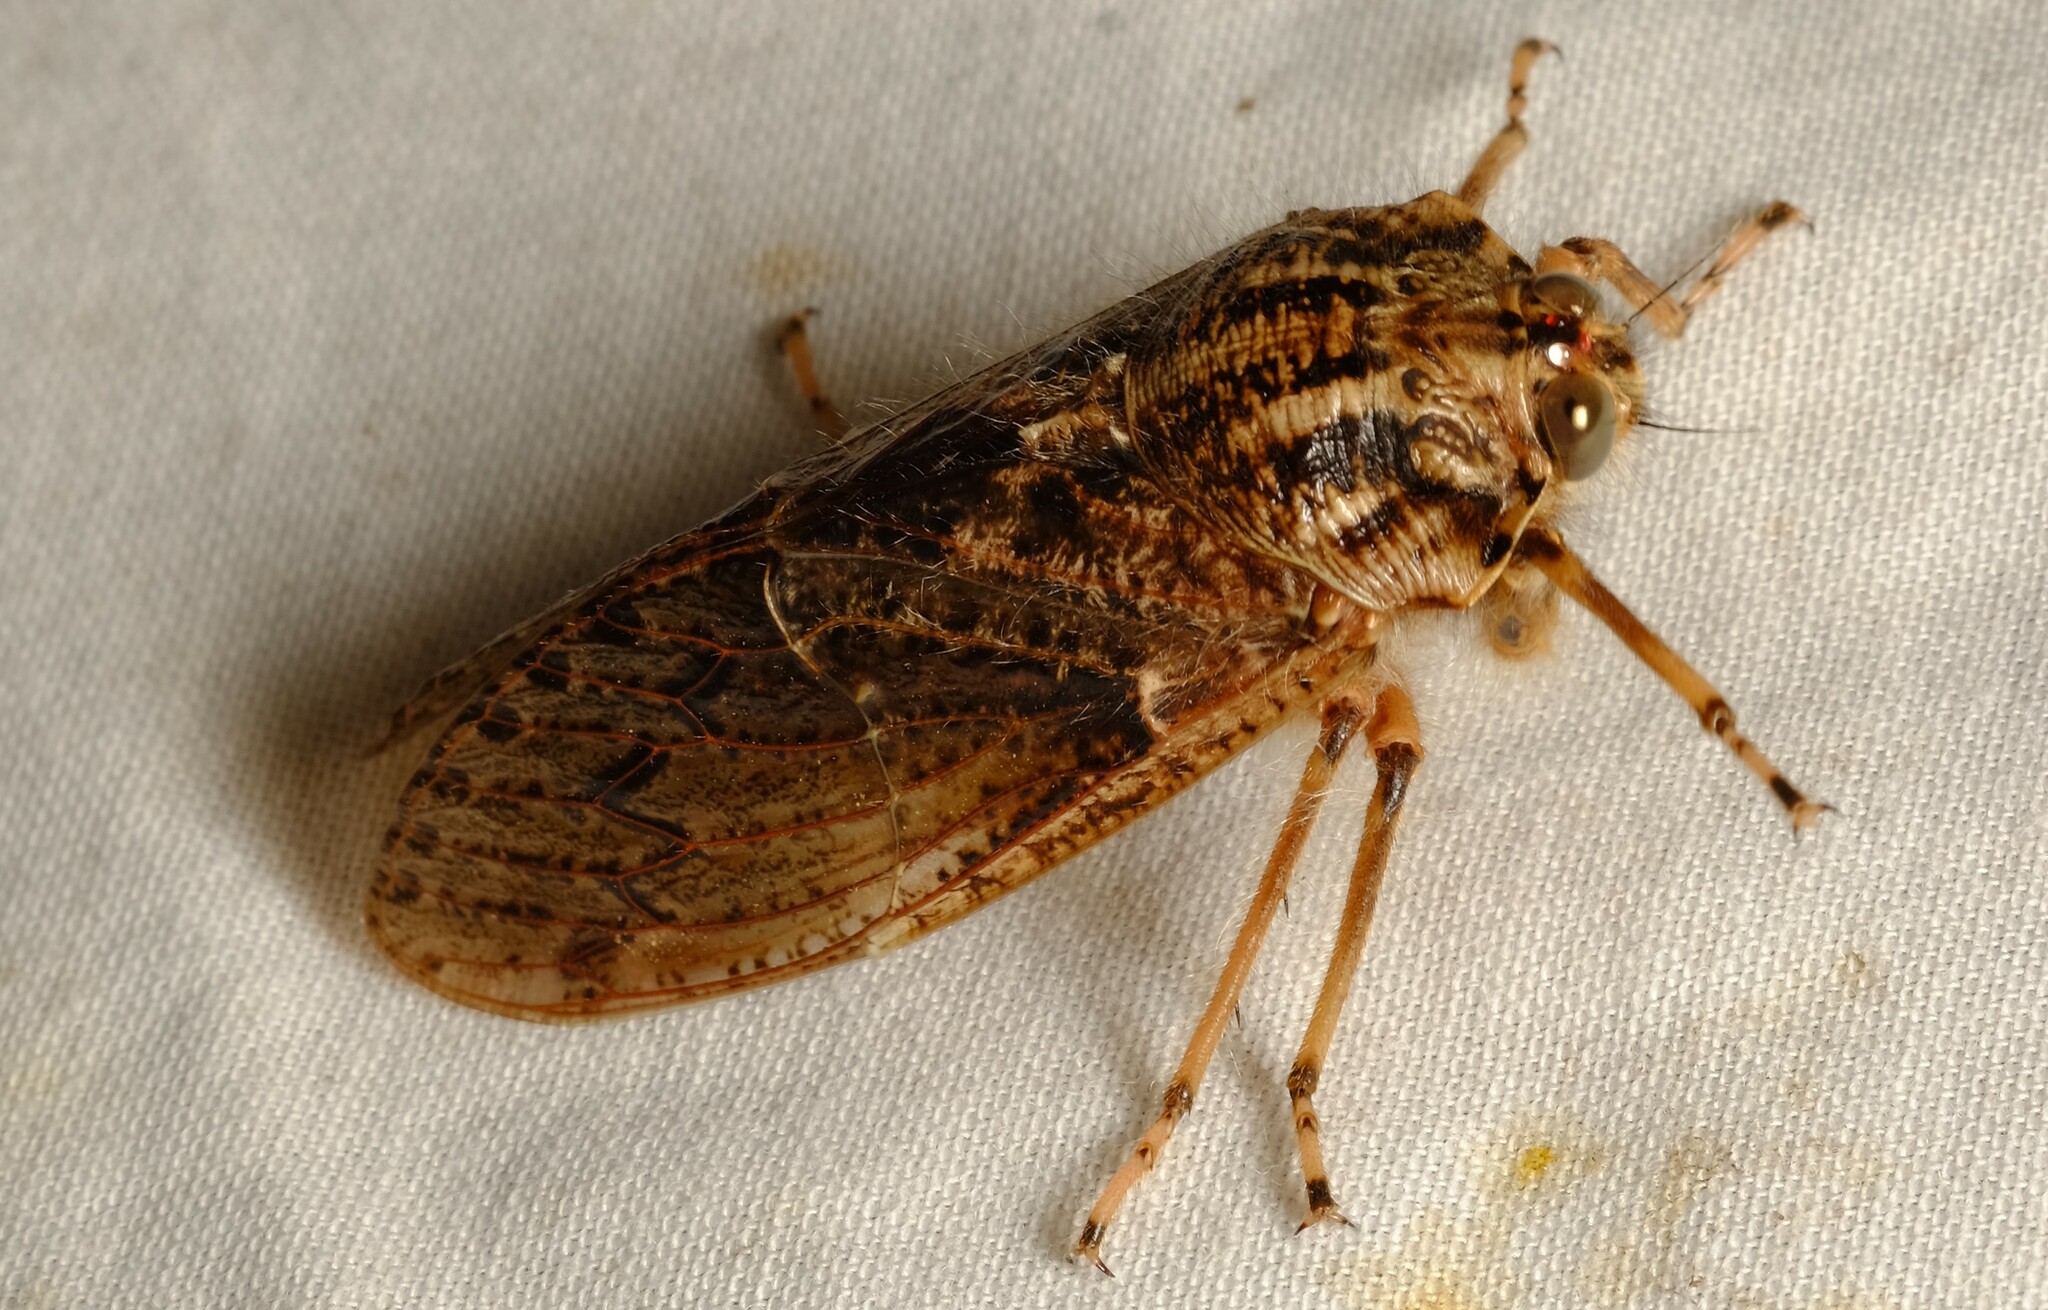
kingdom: Animalia
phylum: Arthropoda
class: Insecta
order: Hemiptera
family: Tettigarctidae
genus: Tettigarcta
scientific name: Tettigarcta crinita
